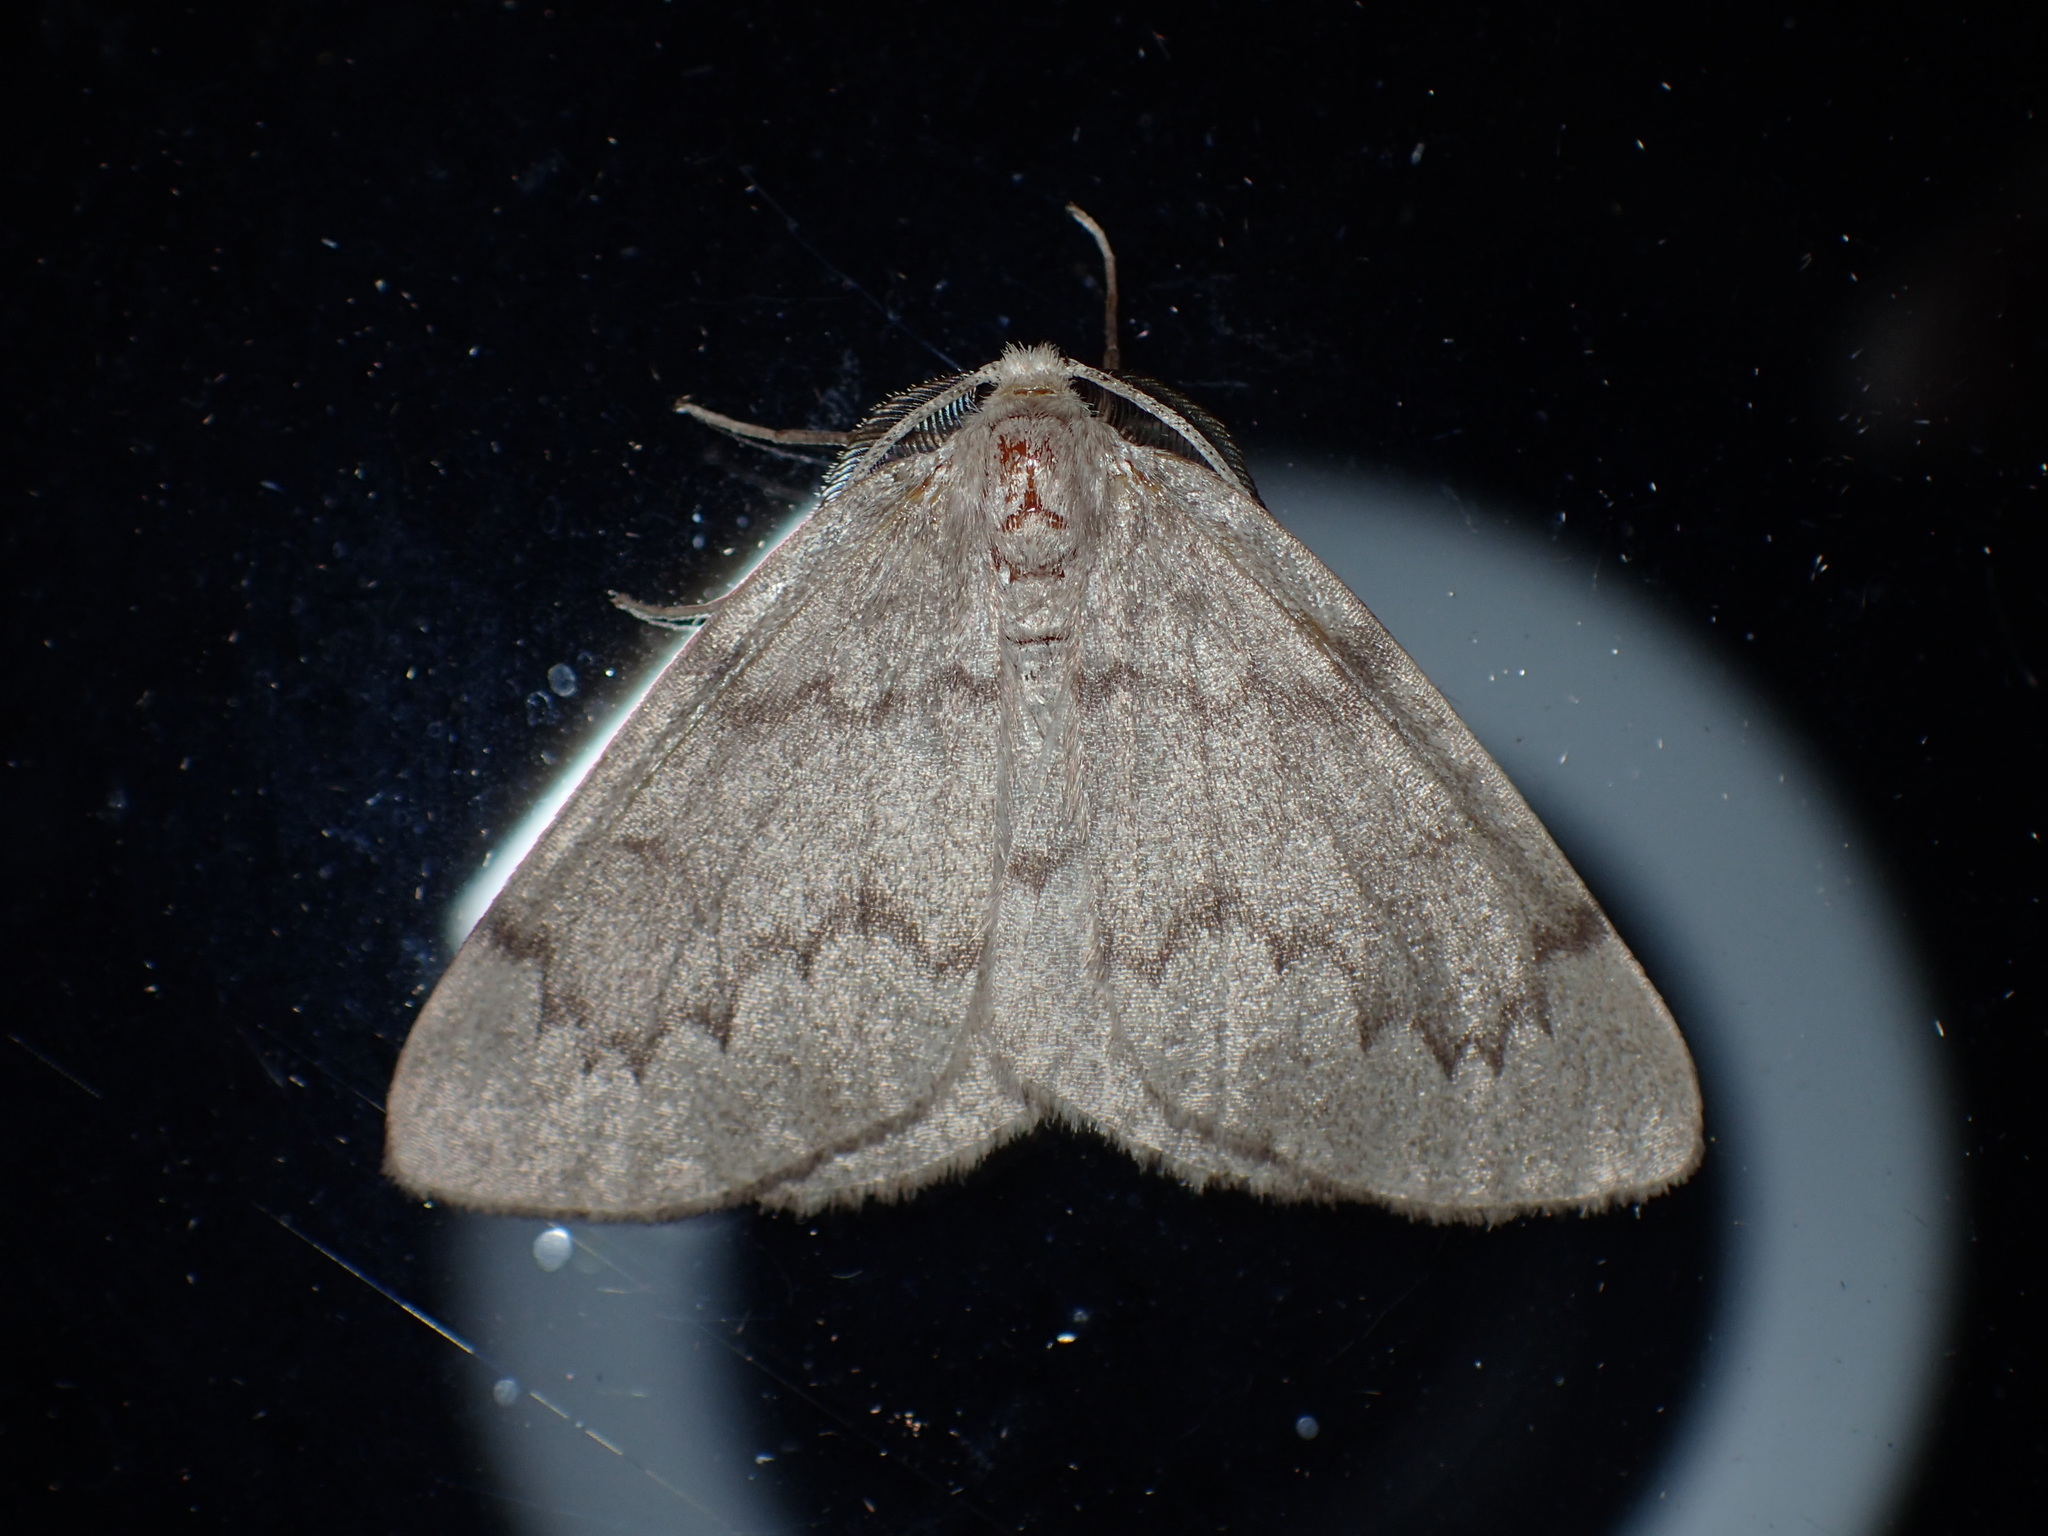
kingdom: Animalia
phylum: Arthropoda
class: Insecta
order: Lepidoptera
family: Geometridae
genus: Nepytia
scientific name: Nepytia semiclusaria
